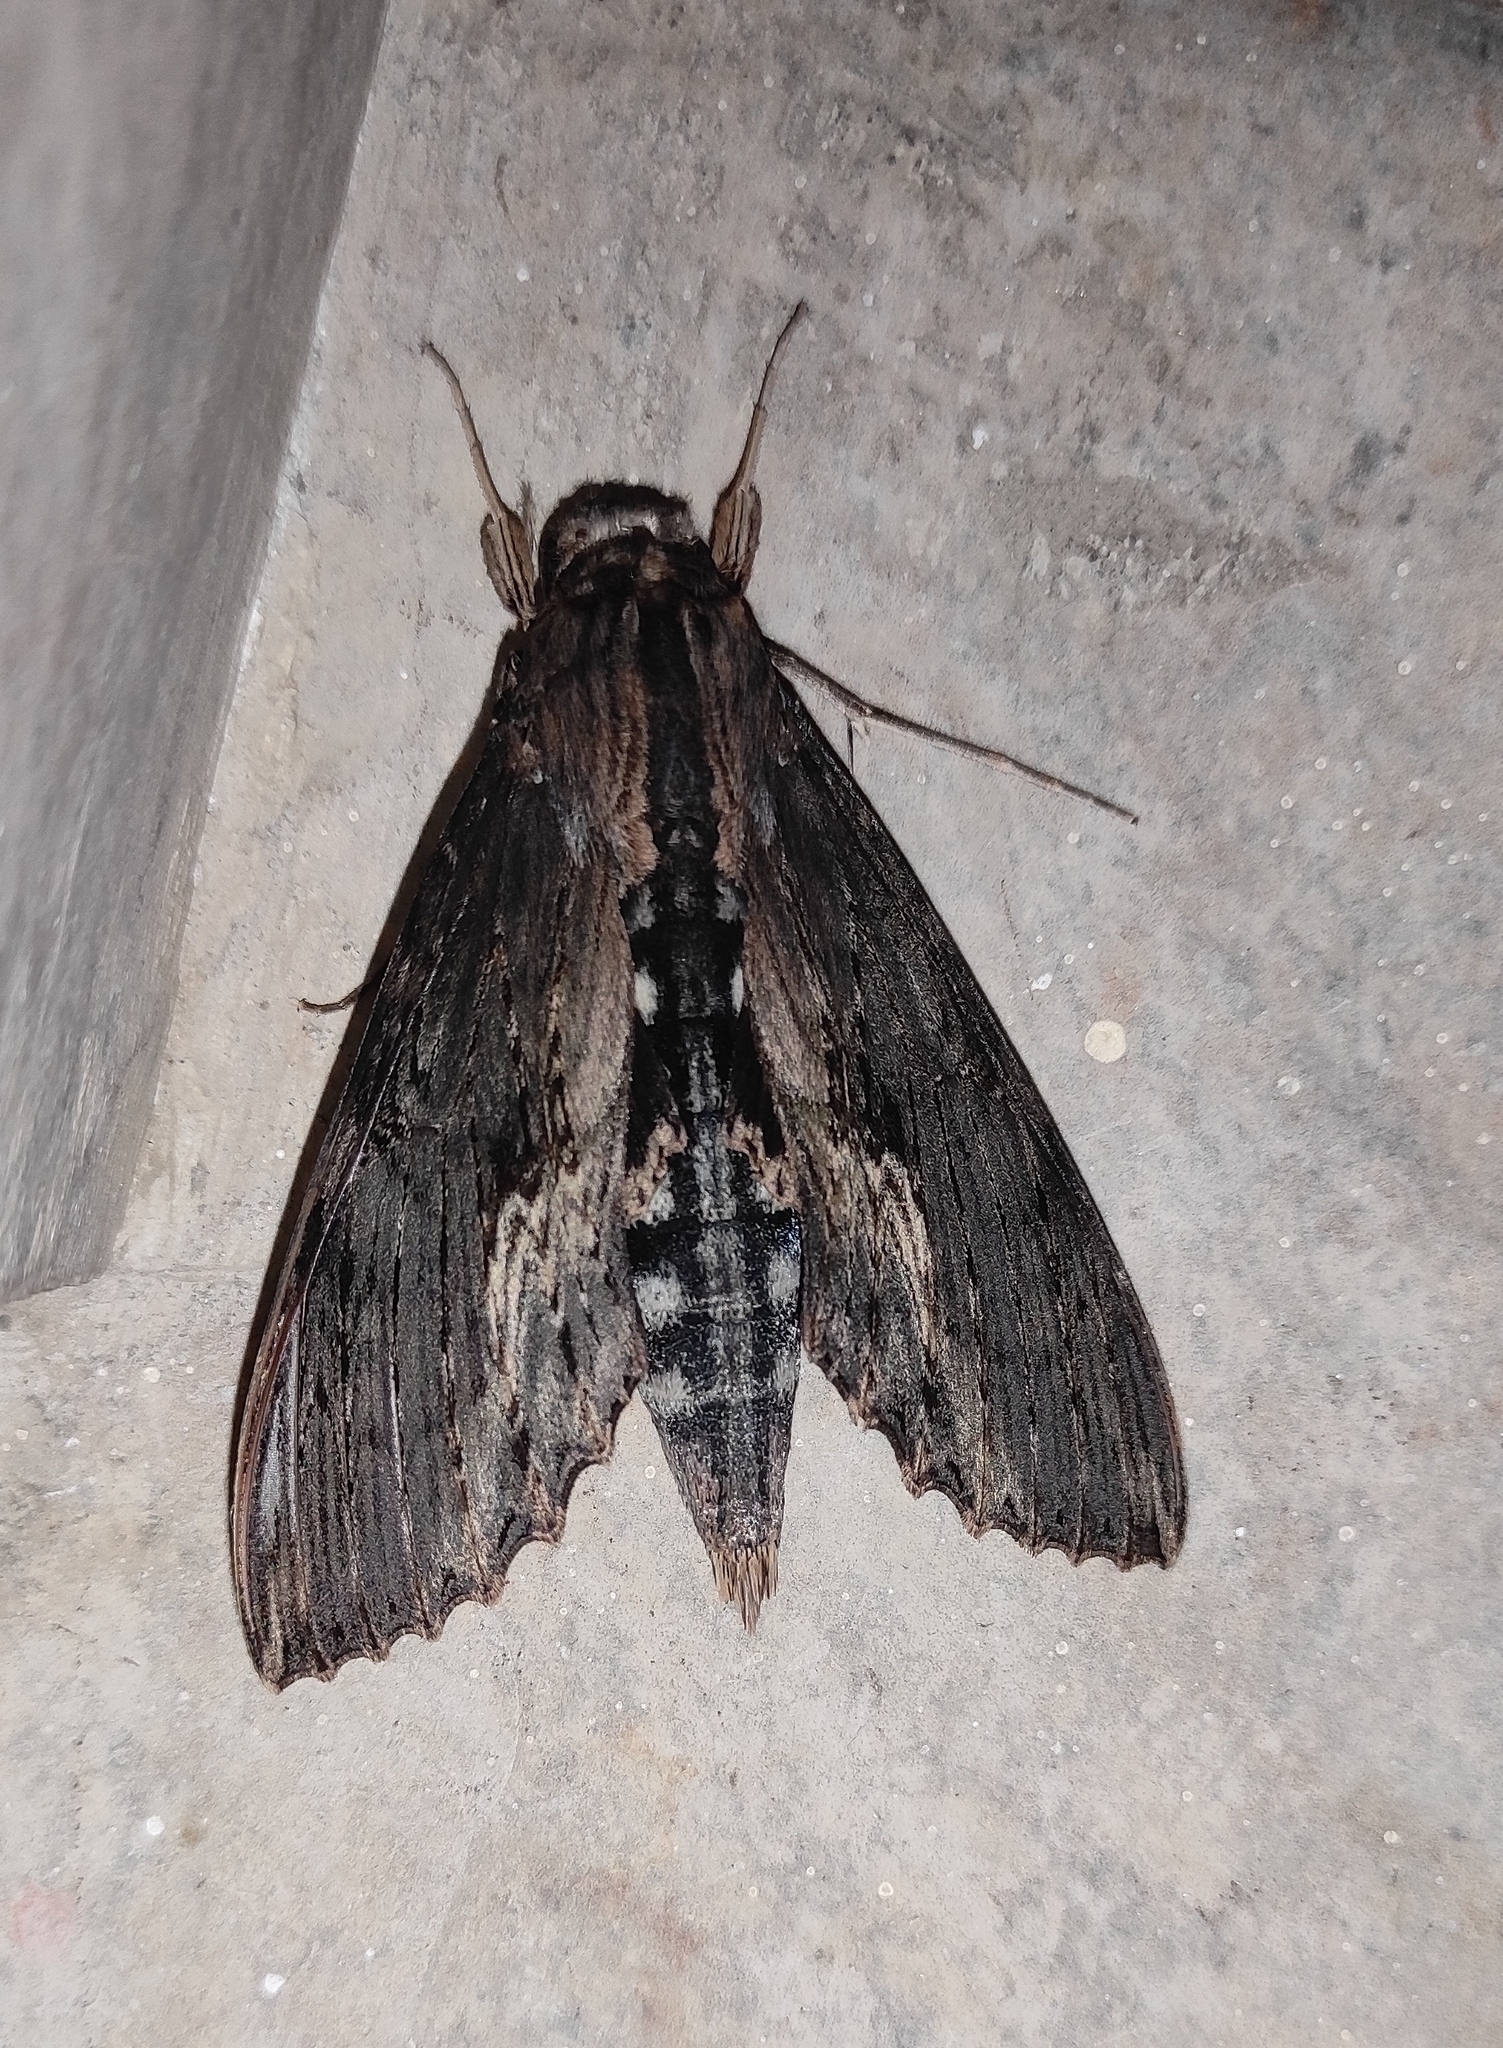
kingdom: Animalia
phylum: Arthropoda
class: Insecta
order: Lepidoptera
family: Sphingidae
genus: Erinnyis
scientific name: Erinnyis alope
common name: Alope sphinx
